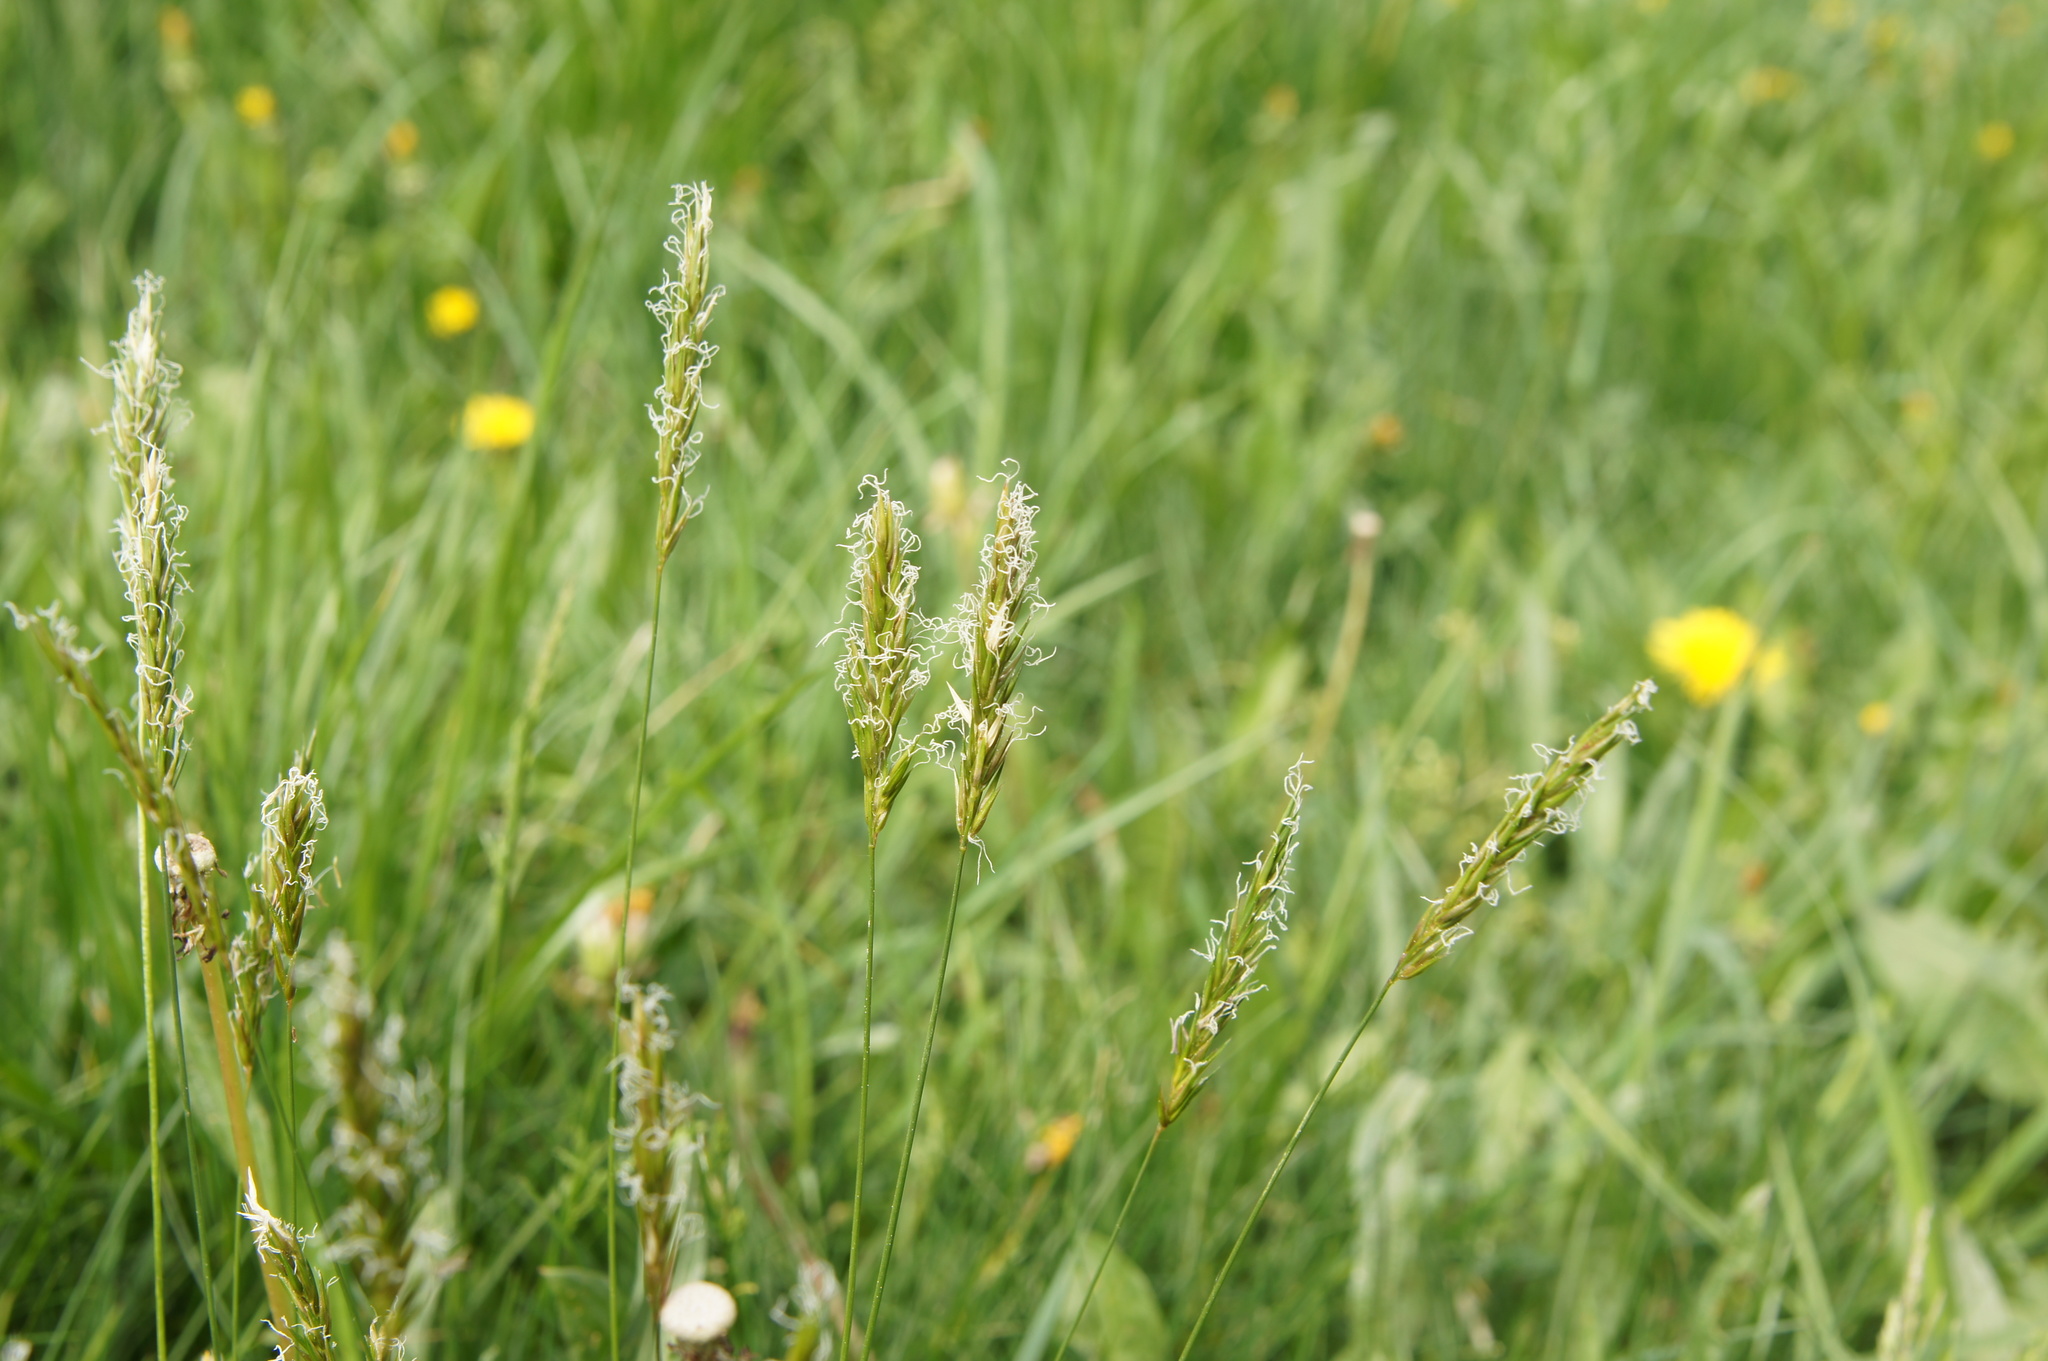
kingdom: Plantae
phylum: Tracheophyta
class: Liliopsida
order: Poales
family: Poaceae
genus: Anthoxanthum
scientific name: Anthoxanthum odoratum
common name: Sweet vernalgrass
